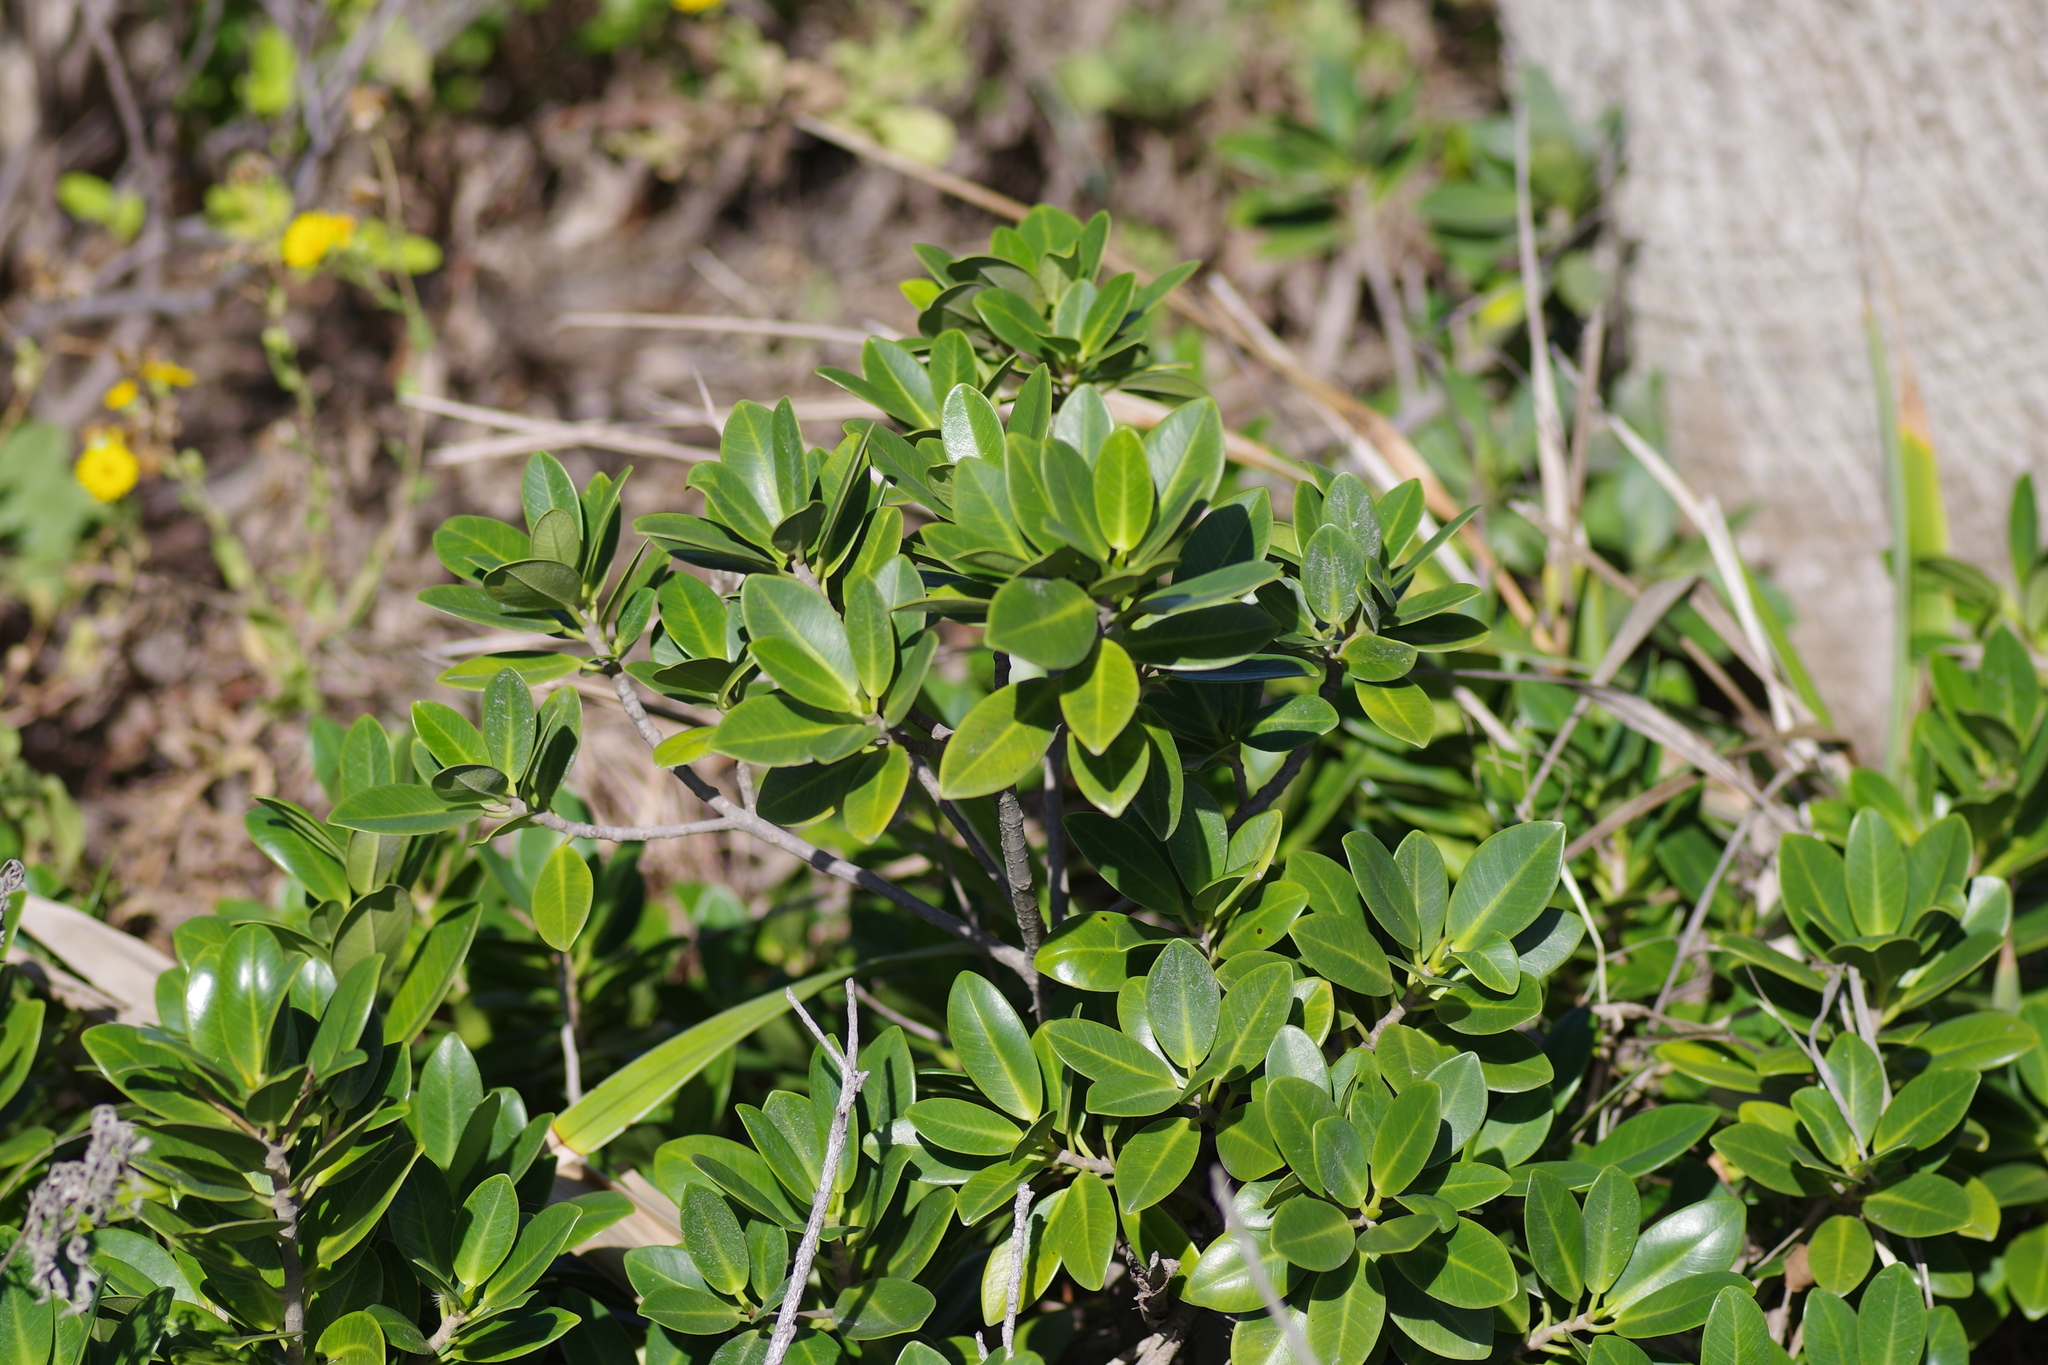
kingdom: Plantae
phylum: Tracheophyta
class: Magnoliopsida
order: Lamiales
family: Acanthaceae
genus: Avicennia
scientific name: Avicennia germinans
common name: Black mangrove
